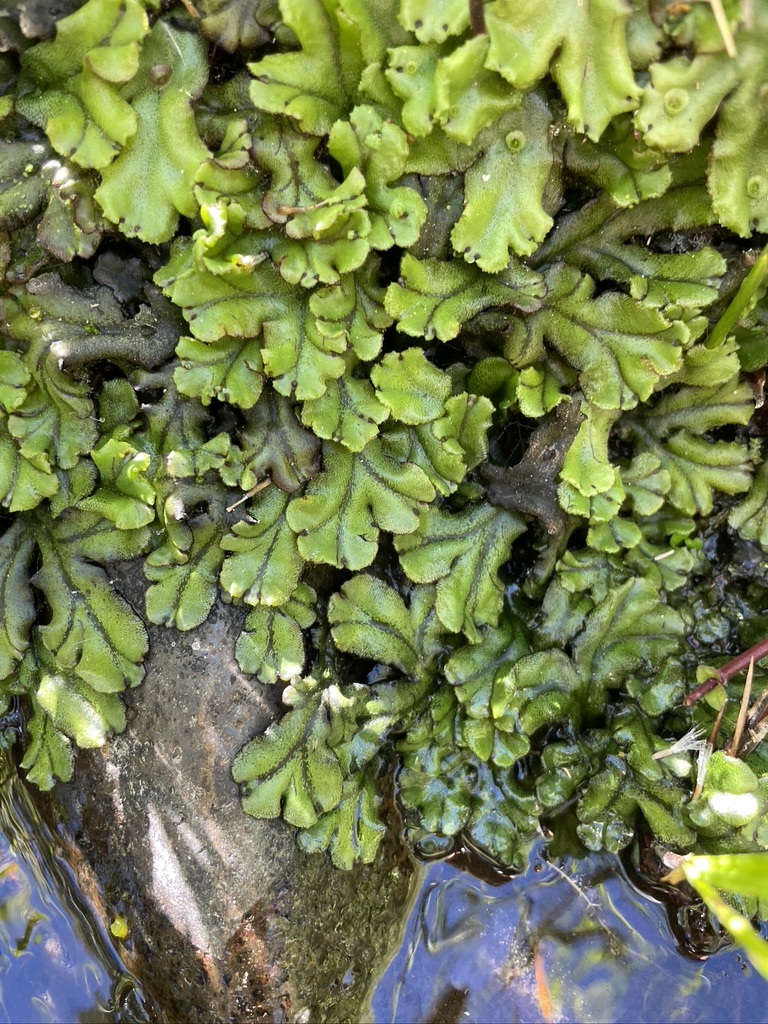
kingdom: Plantae
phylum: Marchantiophyta
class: Marchantiopsida
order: Marchantiales
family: Marchantiaceae
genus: Marchantia
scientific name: Marchantia polymorpha
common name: Common liverwort
